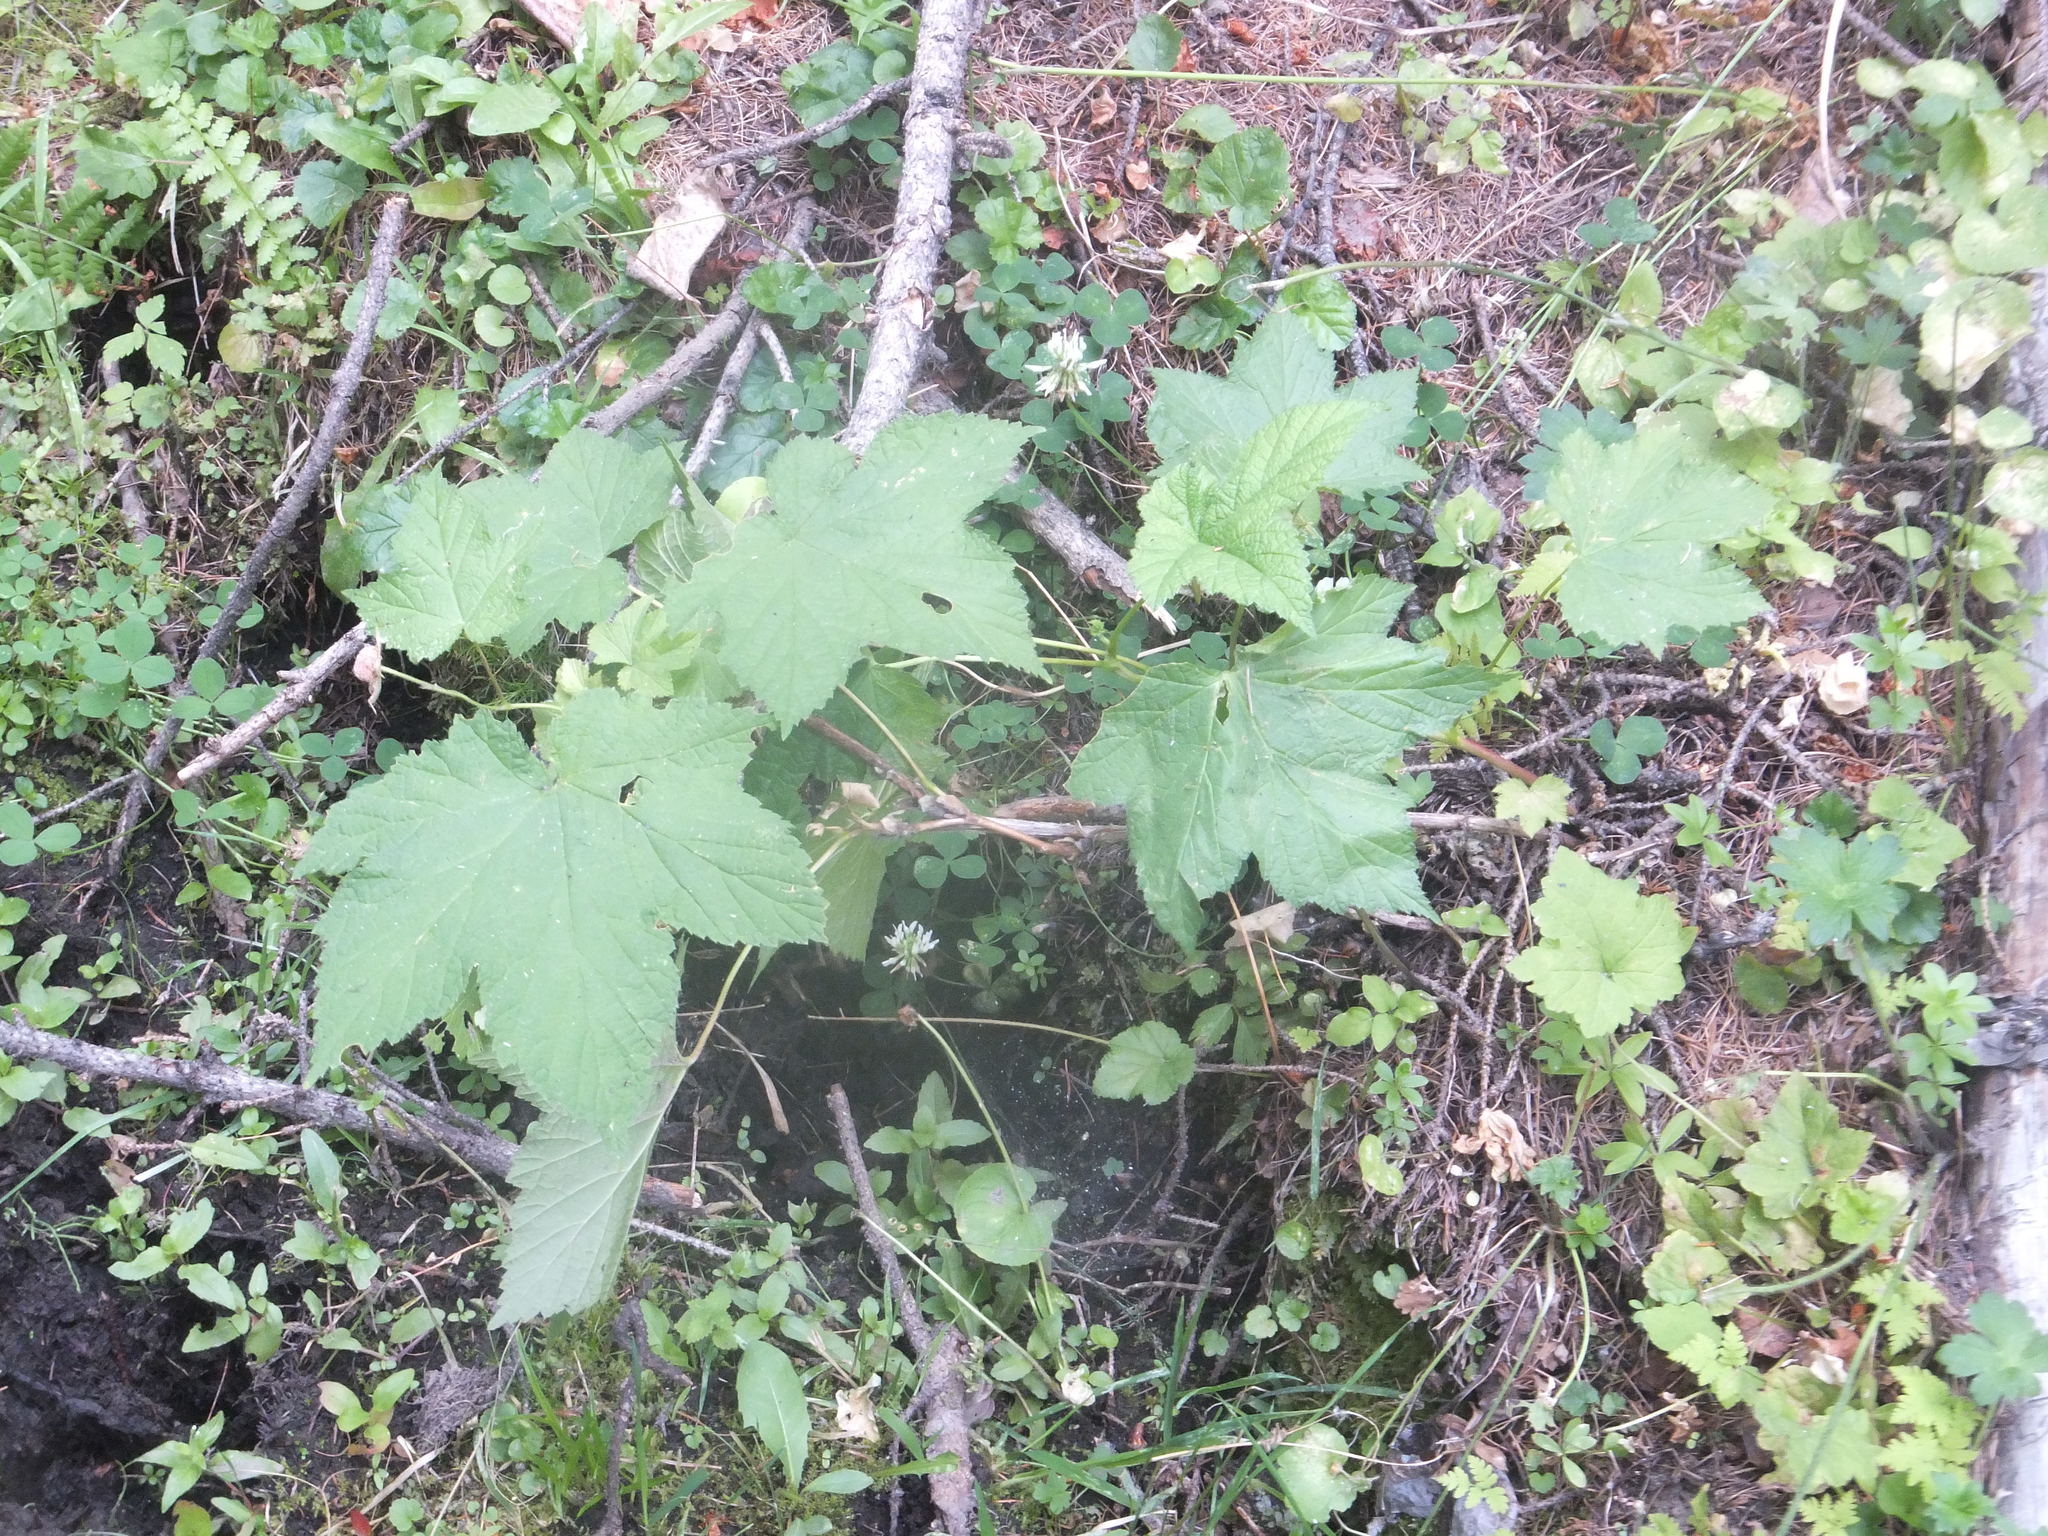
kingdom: Plantae
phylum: Tracheophyta
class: Magnoliopsida
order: Rosales
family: Rosaceae
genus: Rubus
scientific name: Rubus parviflorus
